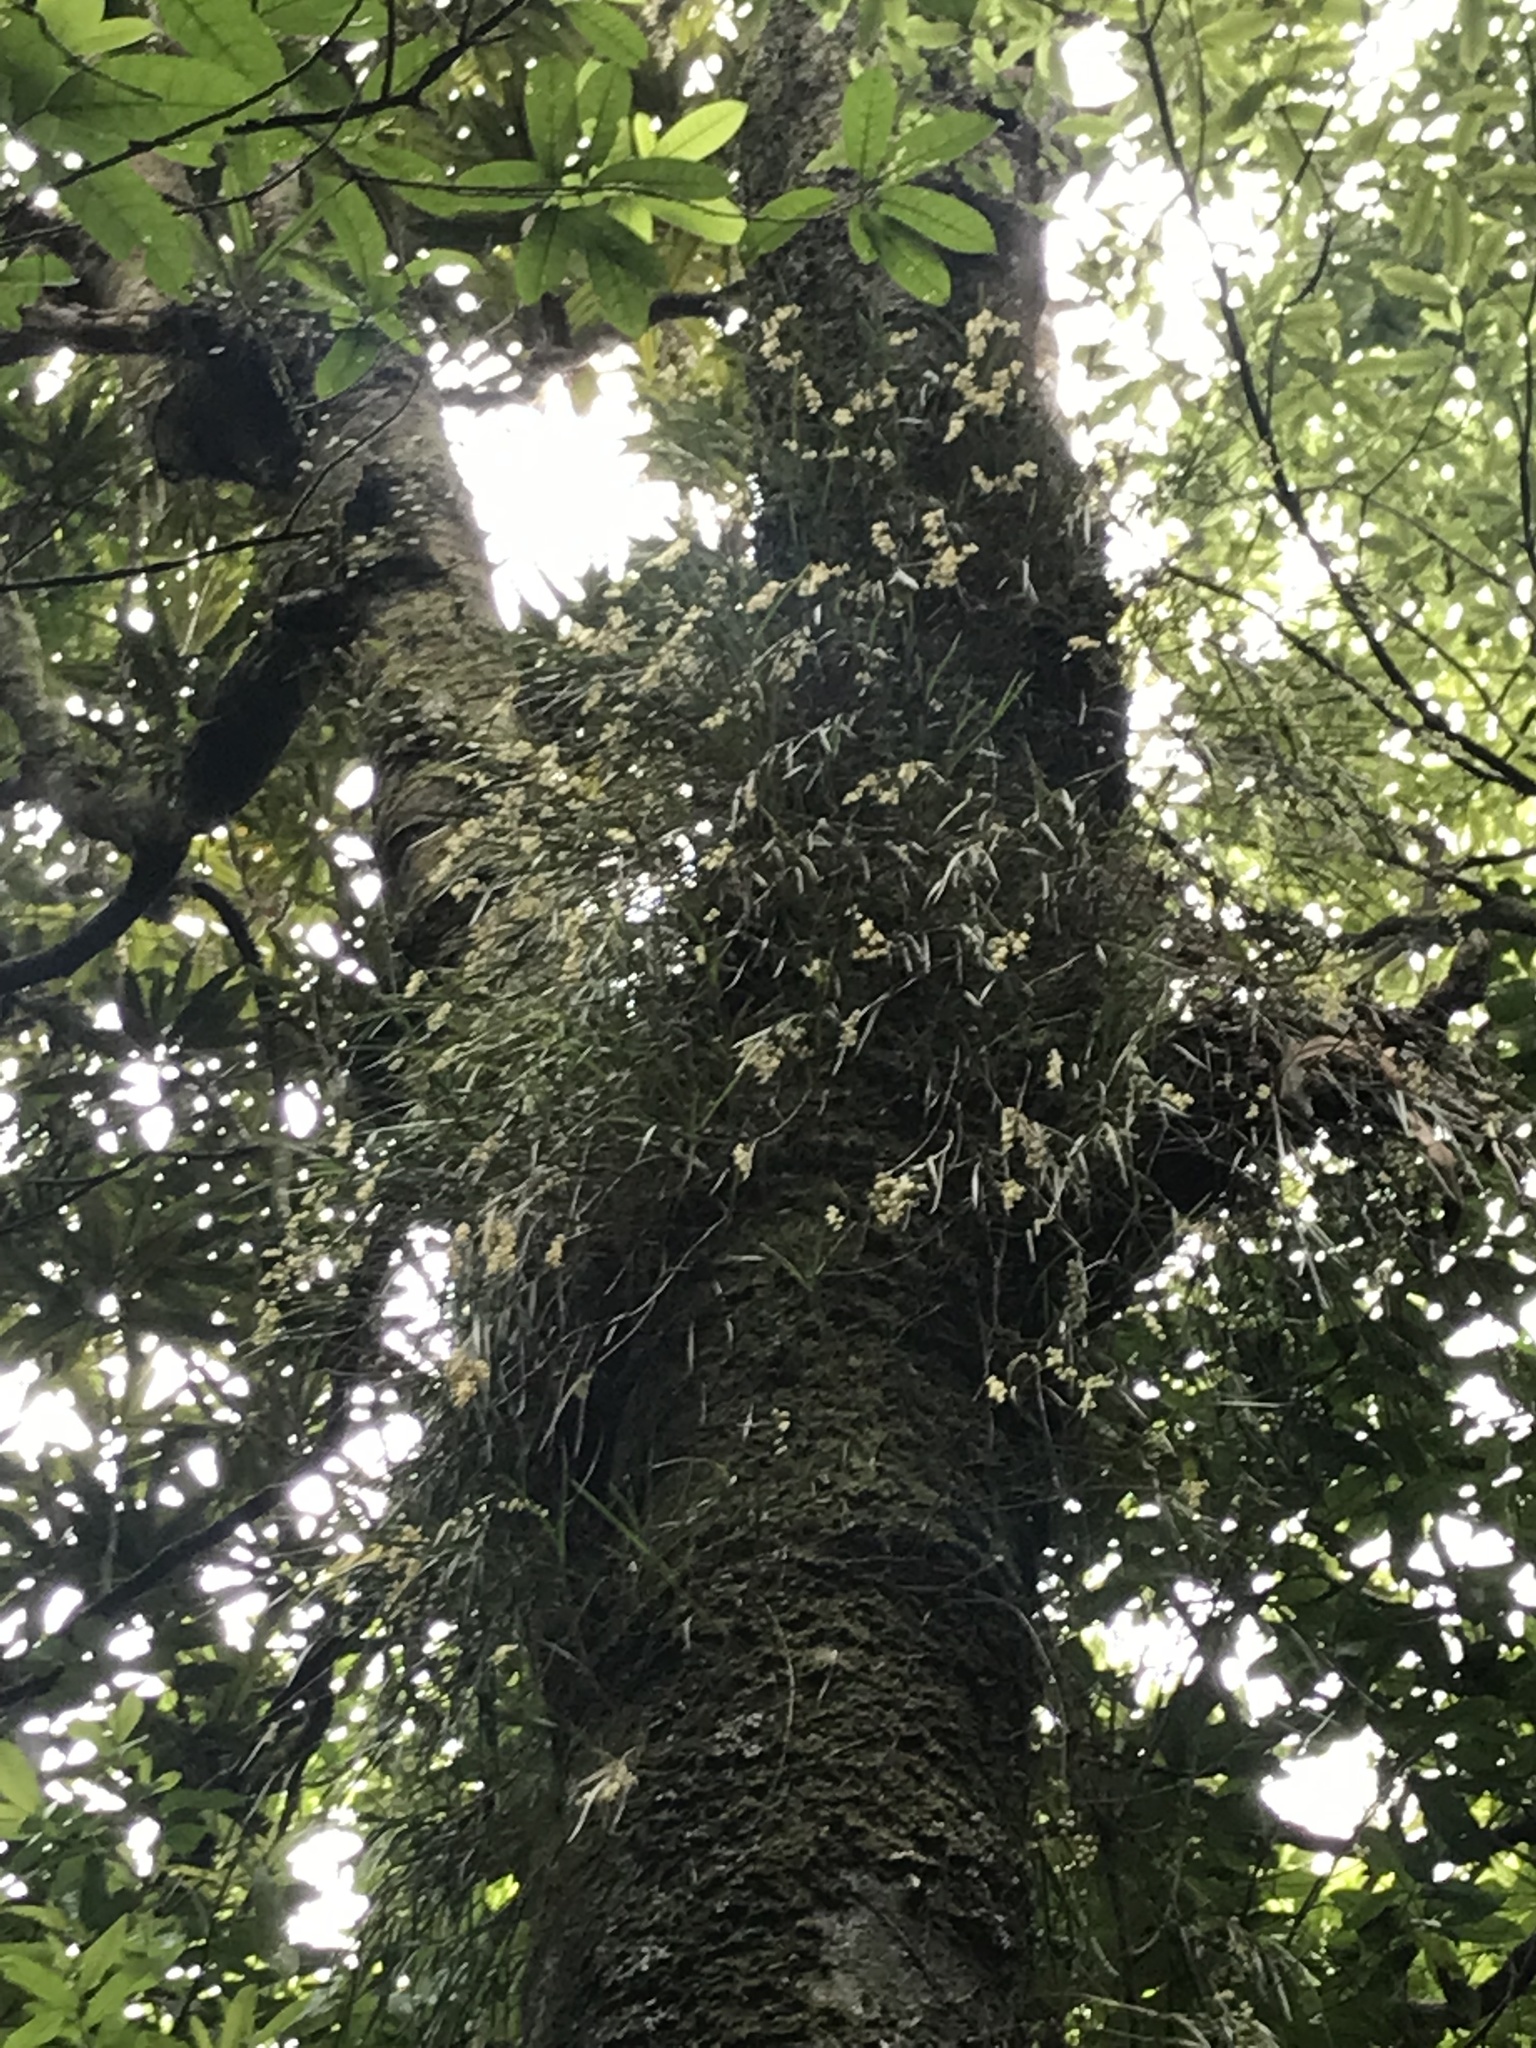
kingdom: Plantae
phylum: Tracheophyta
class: Liliopsida
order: Asparagales
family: Orchidaceae
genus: Earina
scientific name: Earina mucronata
